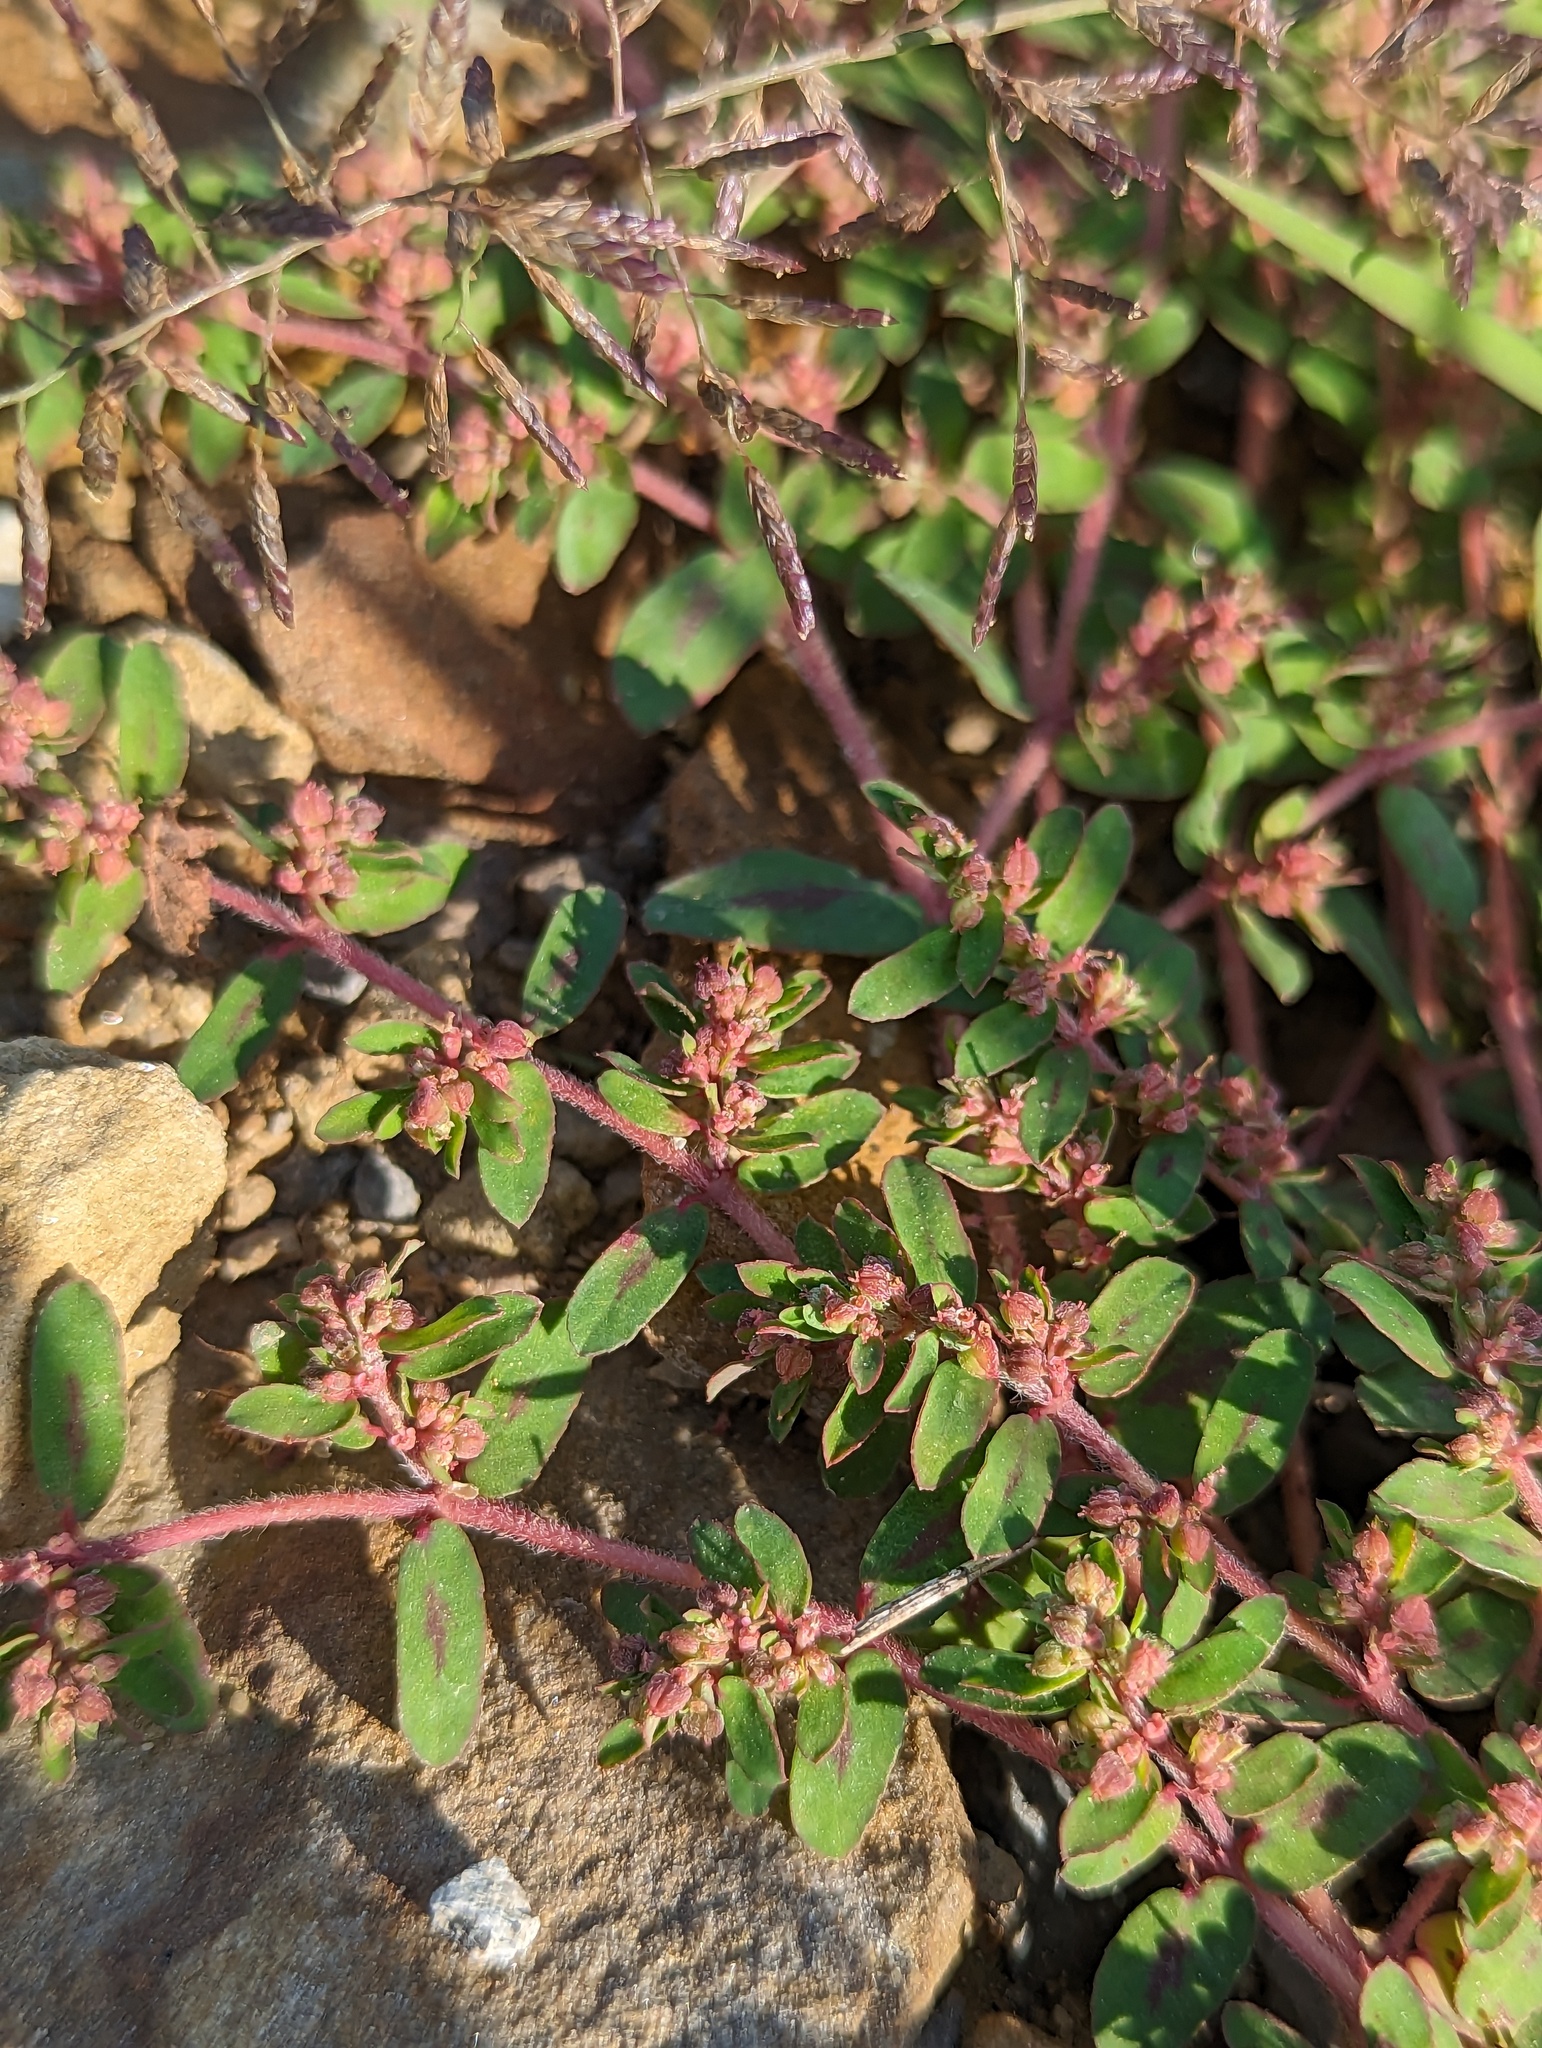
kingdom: Plantae
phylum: Tracheophyta
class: Magnoliopsida
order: Malpighiales
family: Euphorbiaceae
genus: Euphorbia
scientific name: Euphorbia maculata
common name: Spotted spurge
